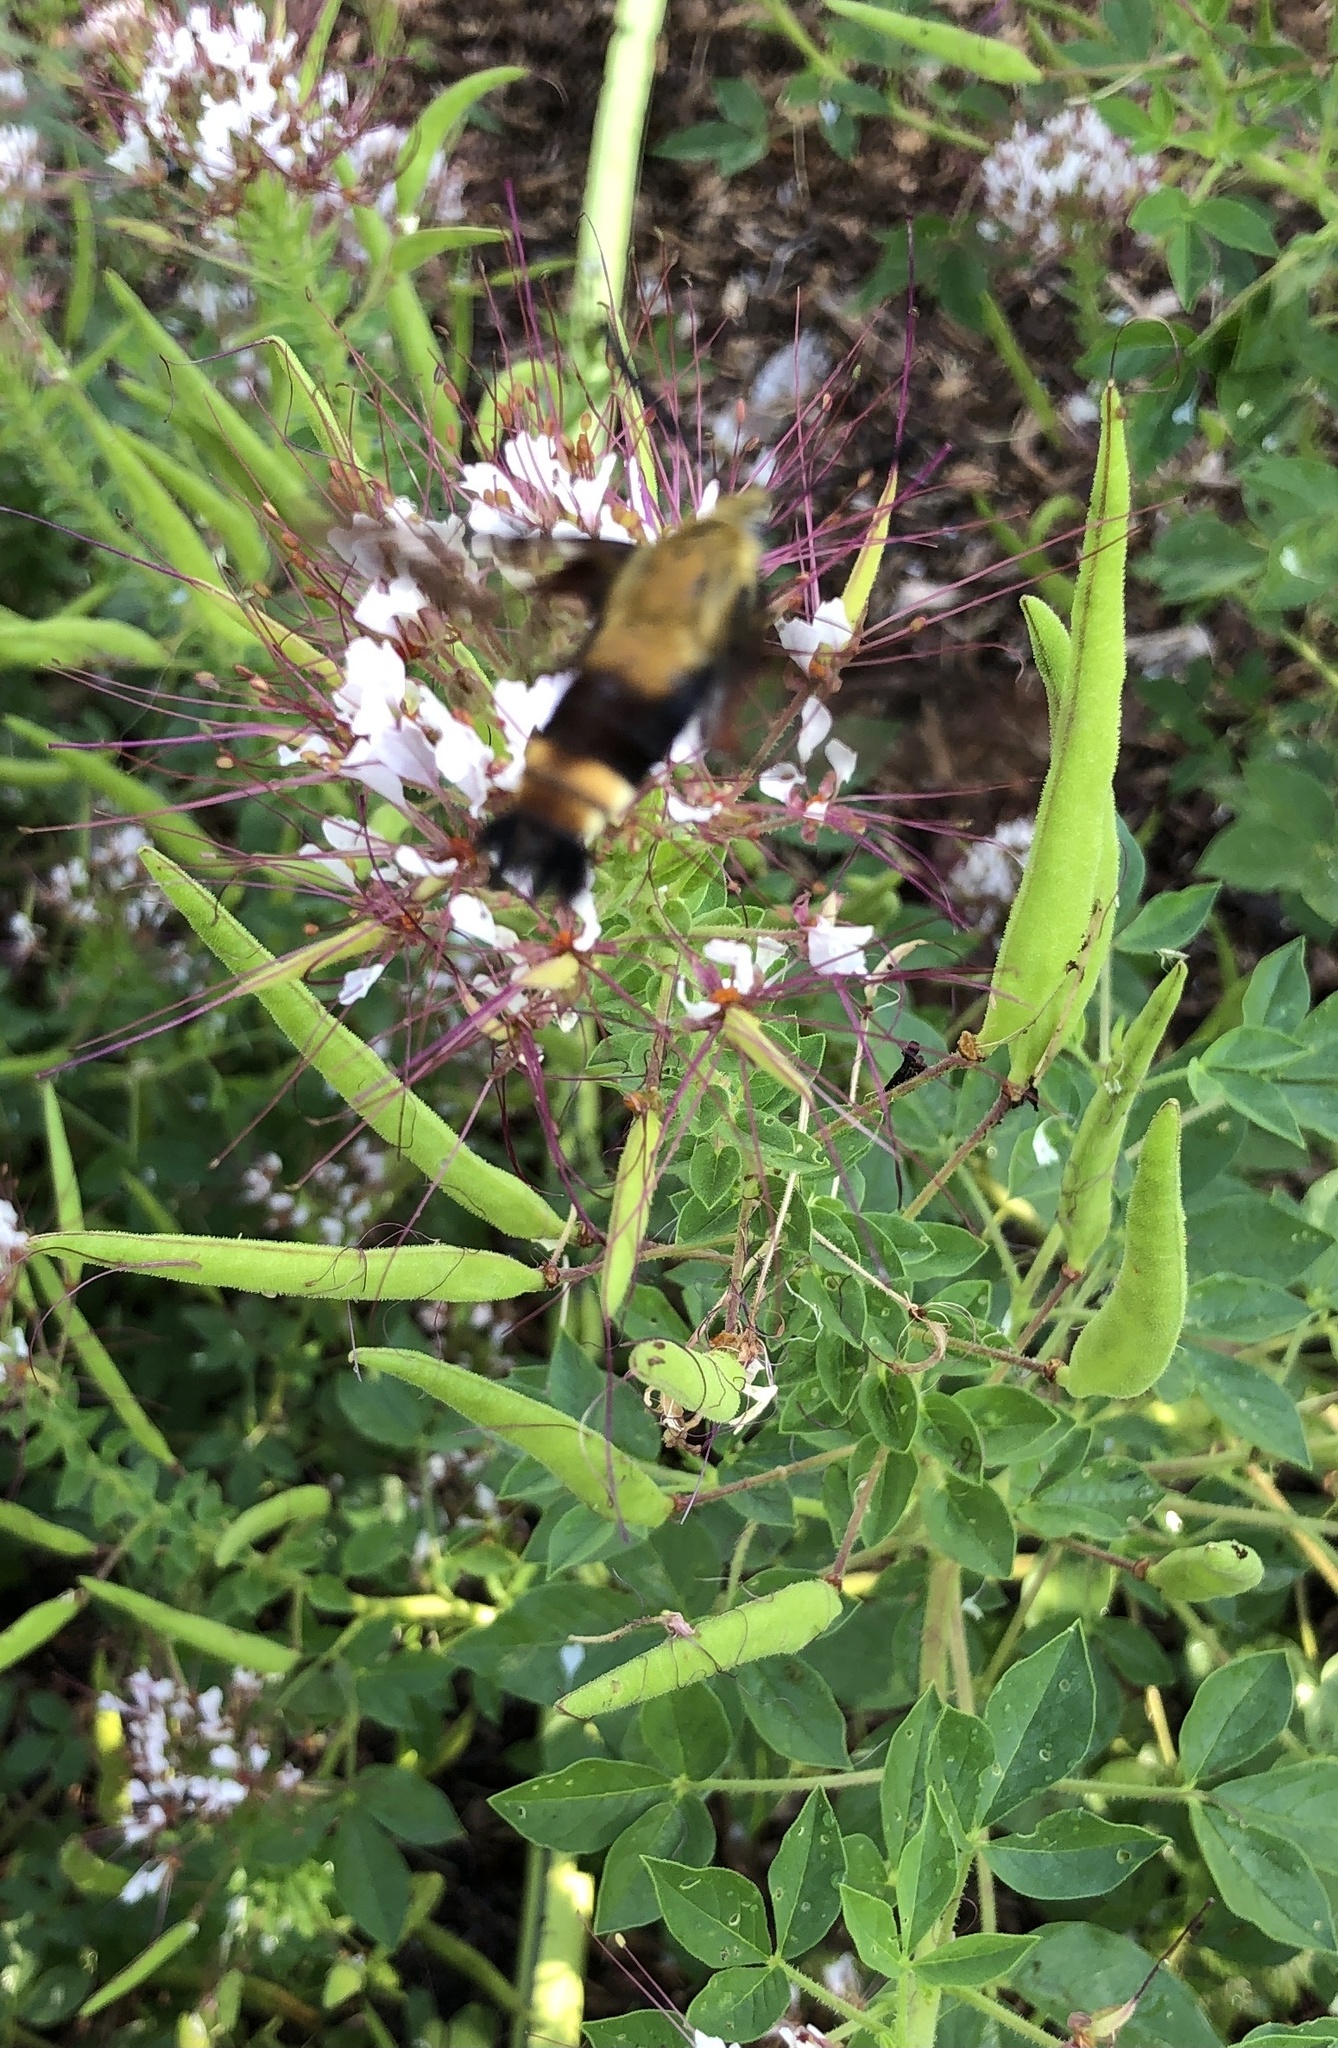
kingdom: Animalia
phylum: Arthropoda
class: Insecta
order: Lepidoptera
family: Sphingidae
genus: Hemaris
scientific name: Hemaris diffinis
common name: Bumblebee moth
